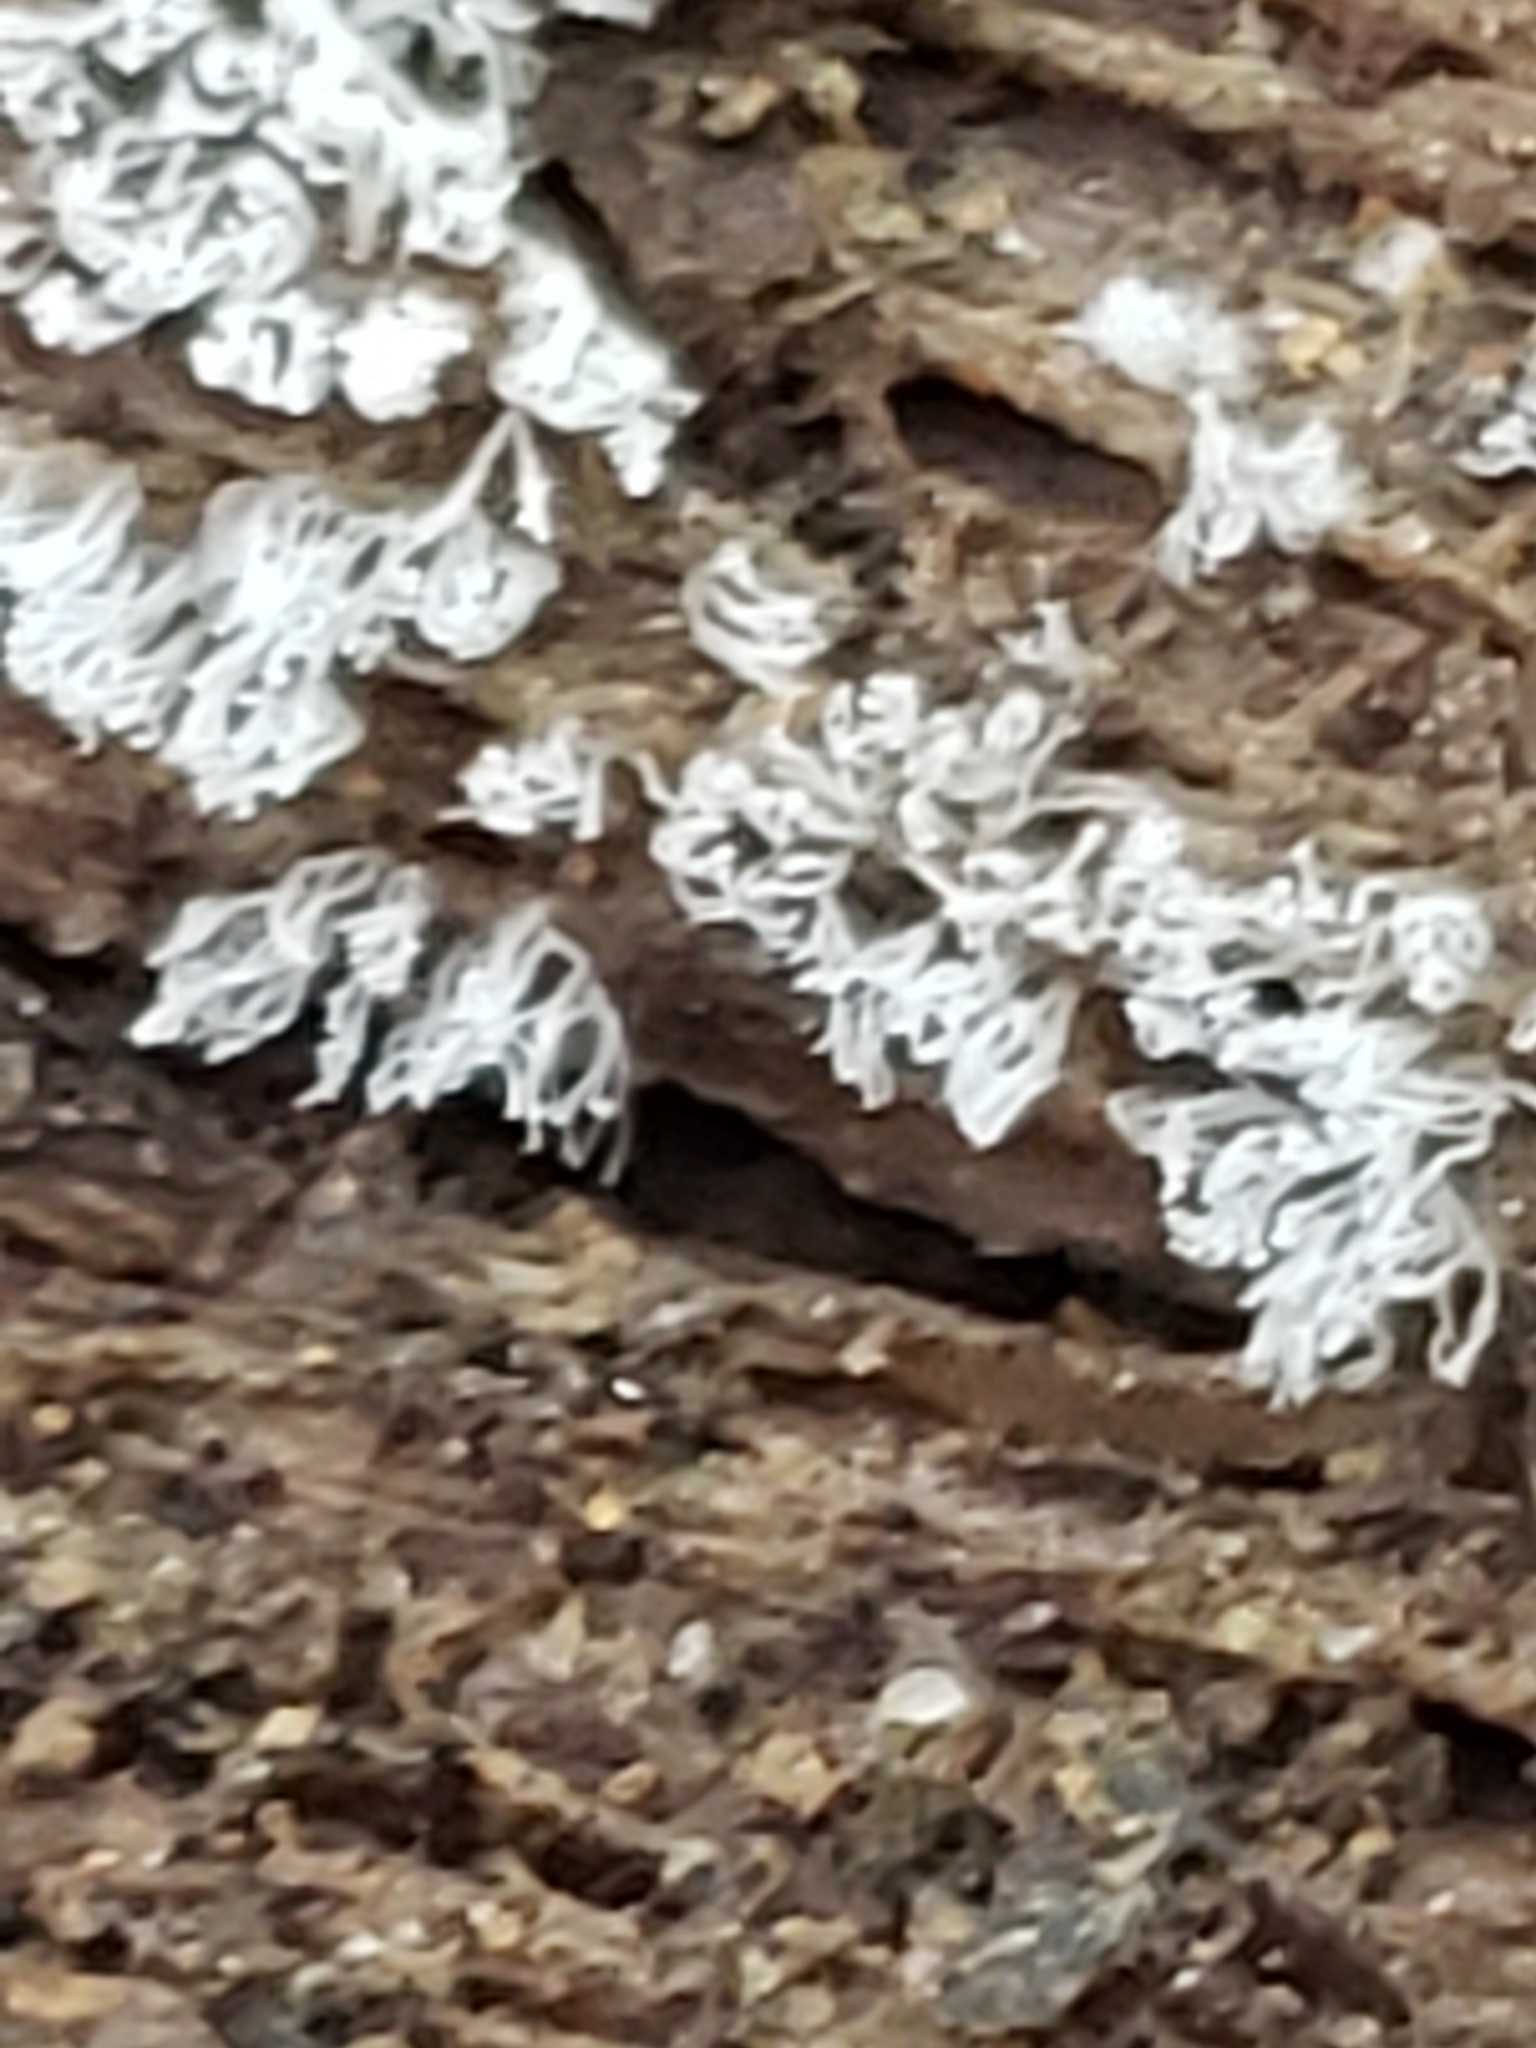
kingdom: Protozoa
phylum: Mycetozoa
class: Protosteliomycetes
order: Ceratiomyxales
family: Ceratiomyxaceae
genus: Ceratiomyxa
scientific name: Ceratiomyxa fruticulosa
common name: Honeycomb coral slime mold
